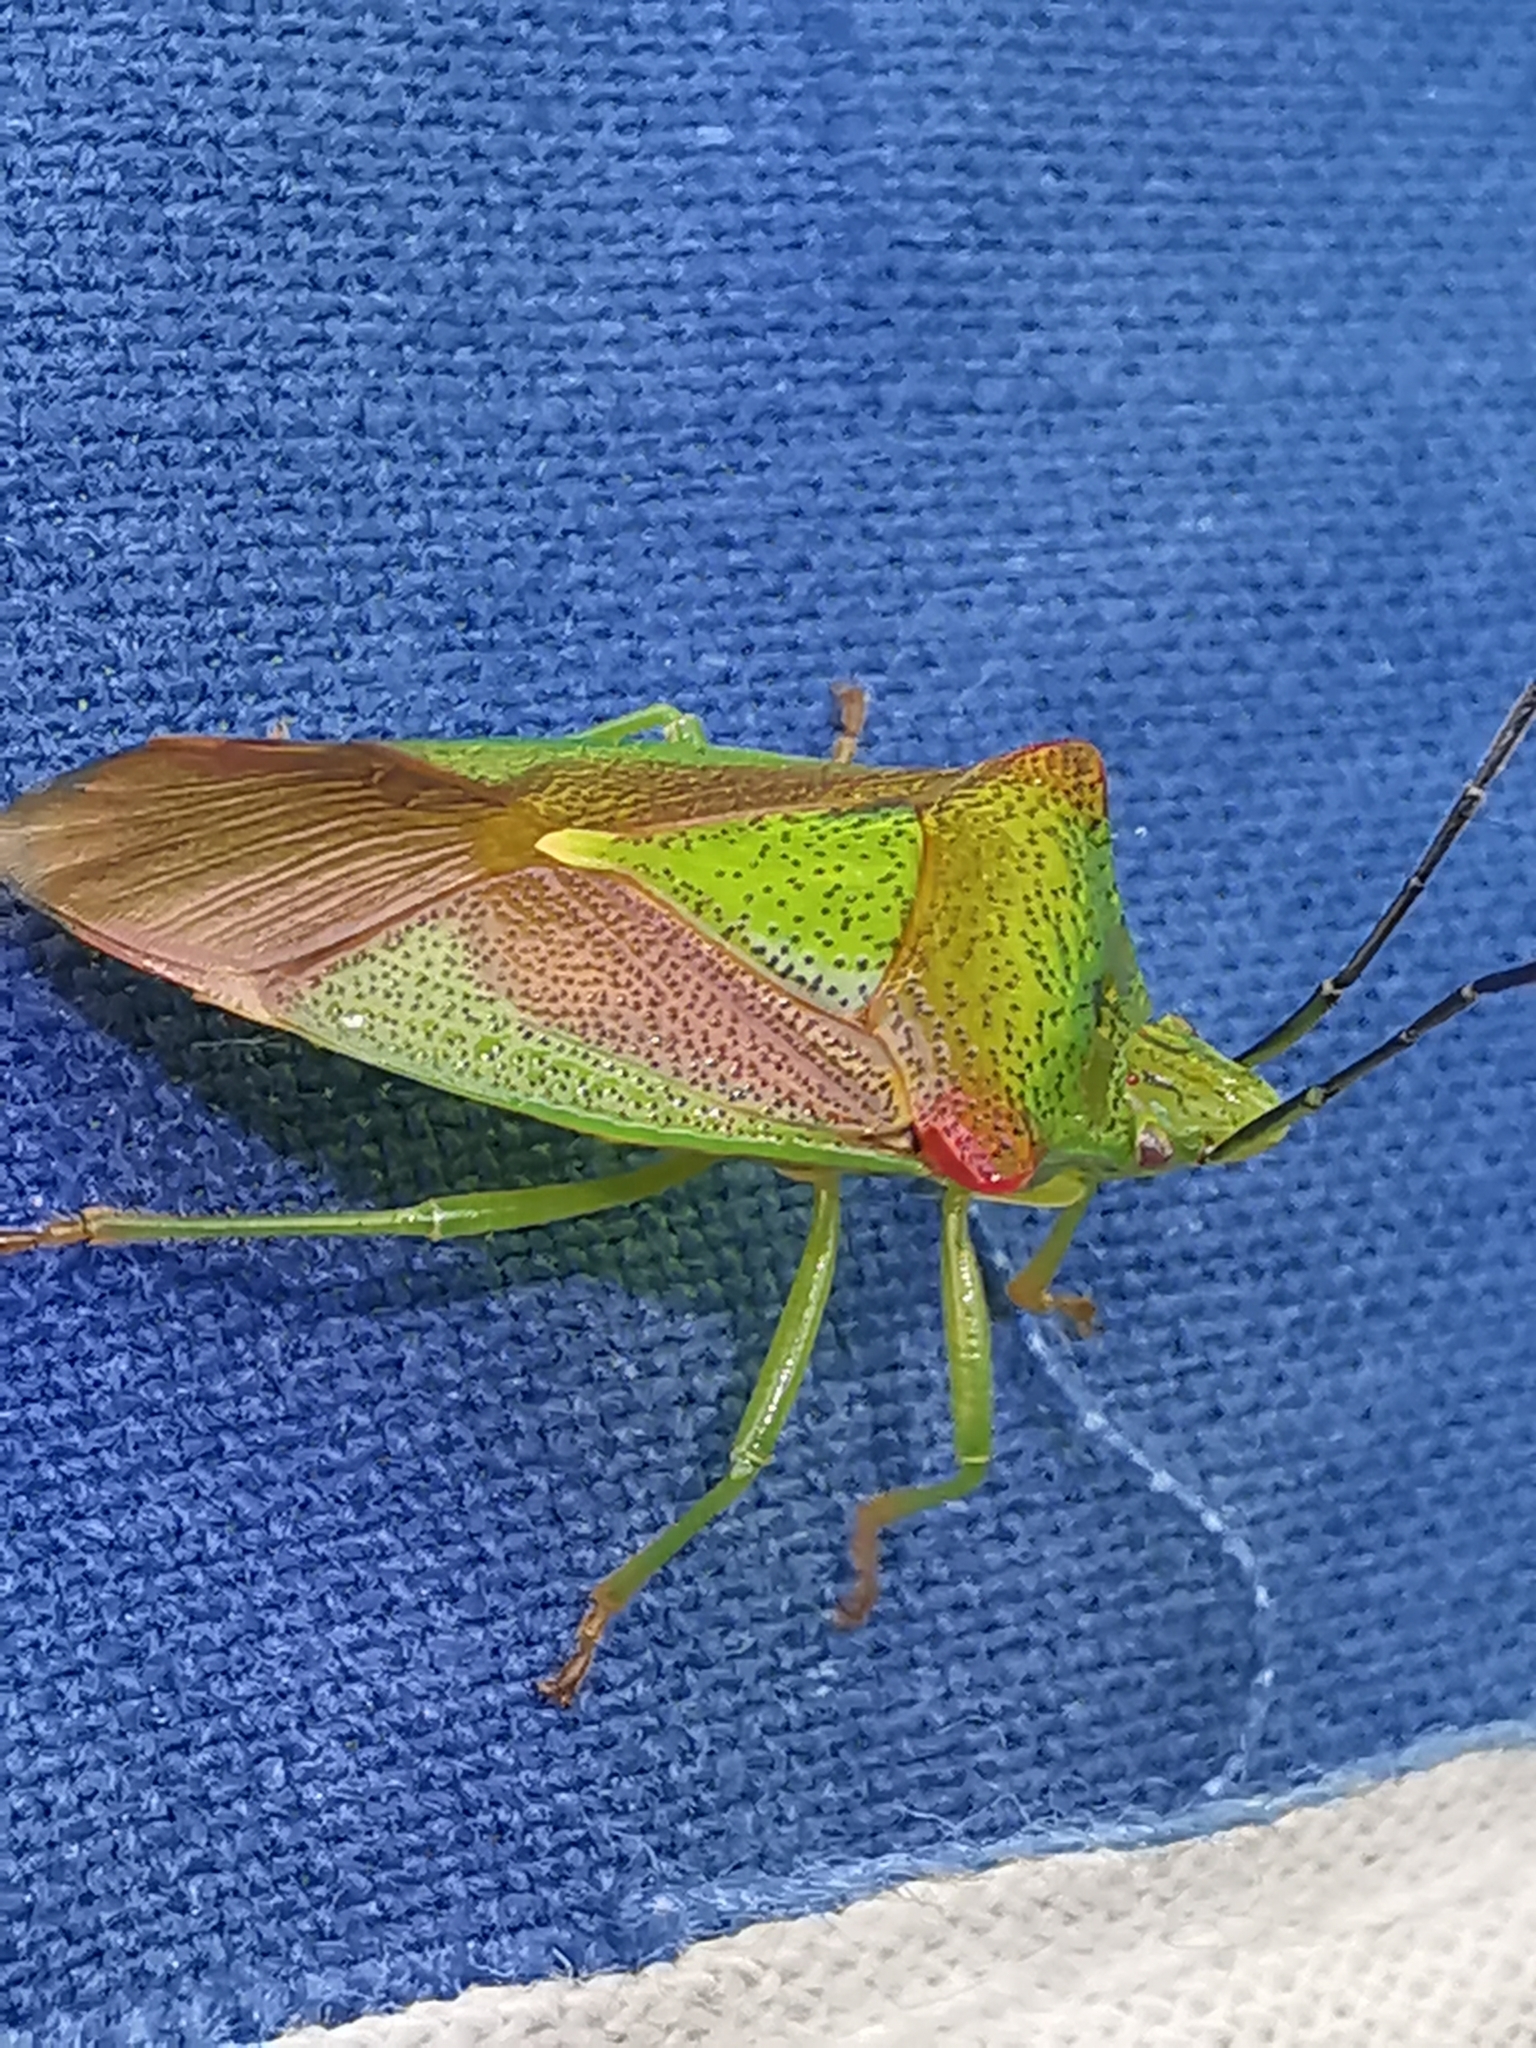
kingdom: Animalia
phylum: Arthropoda
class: Insecta
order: Hemiptera
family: Acanthosomatidae
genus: Acanthosoma
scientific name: Acanthosoma haemorrhoidale
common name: Hawthorn shieldbug
